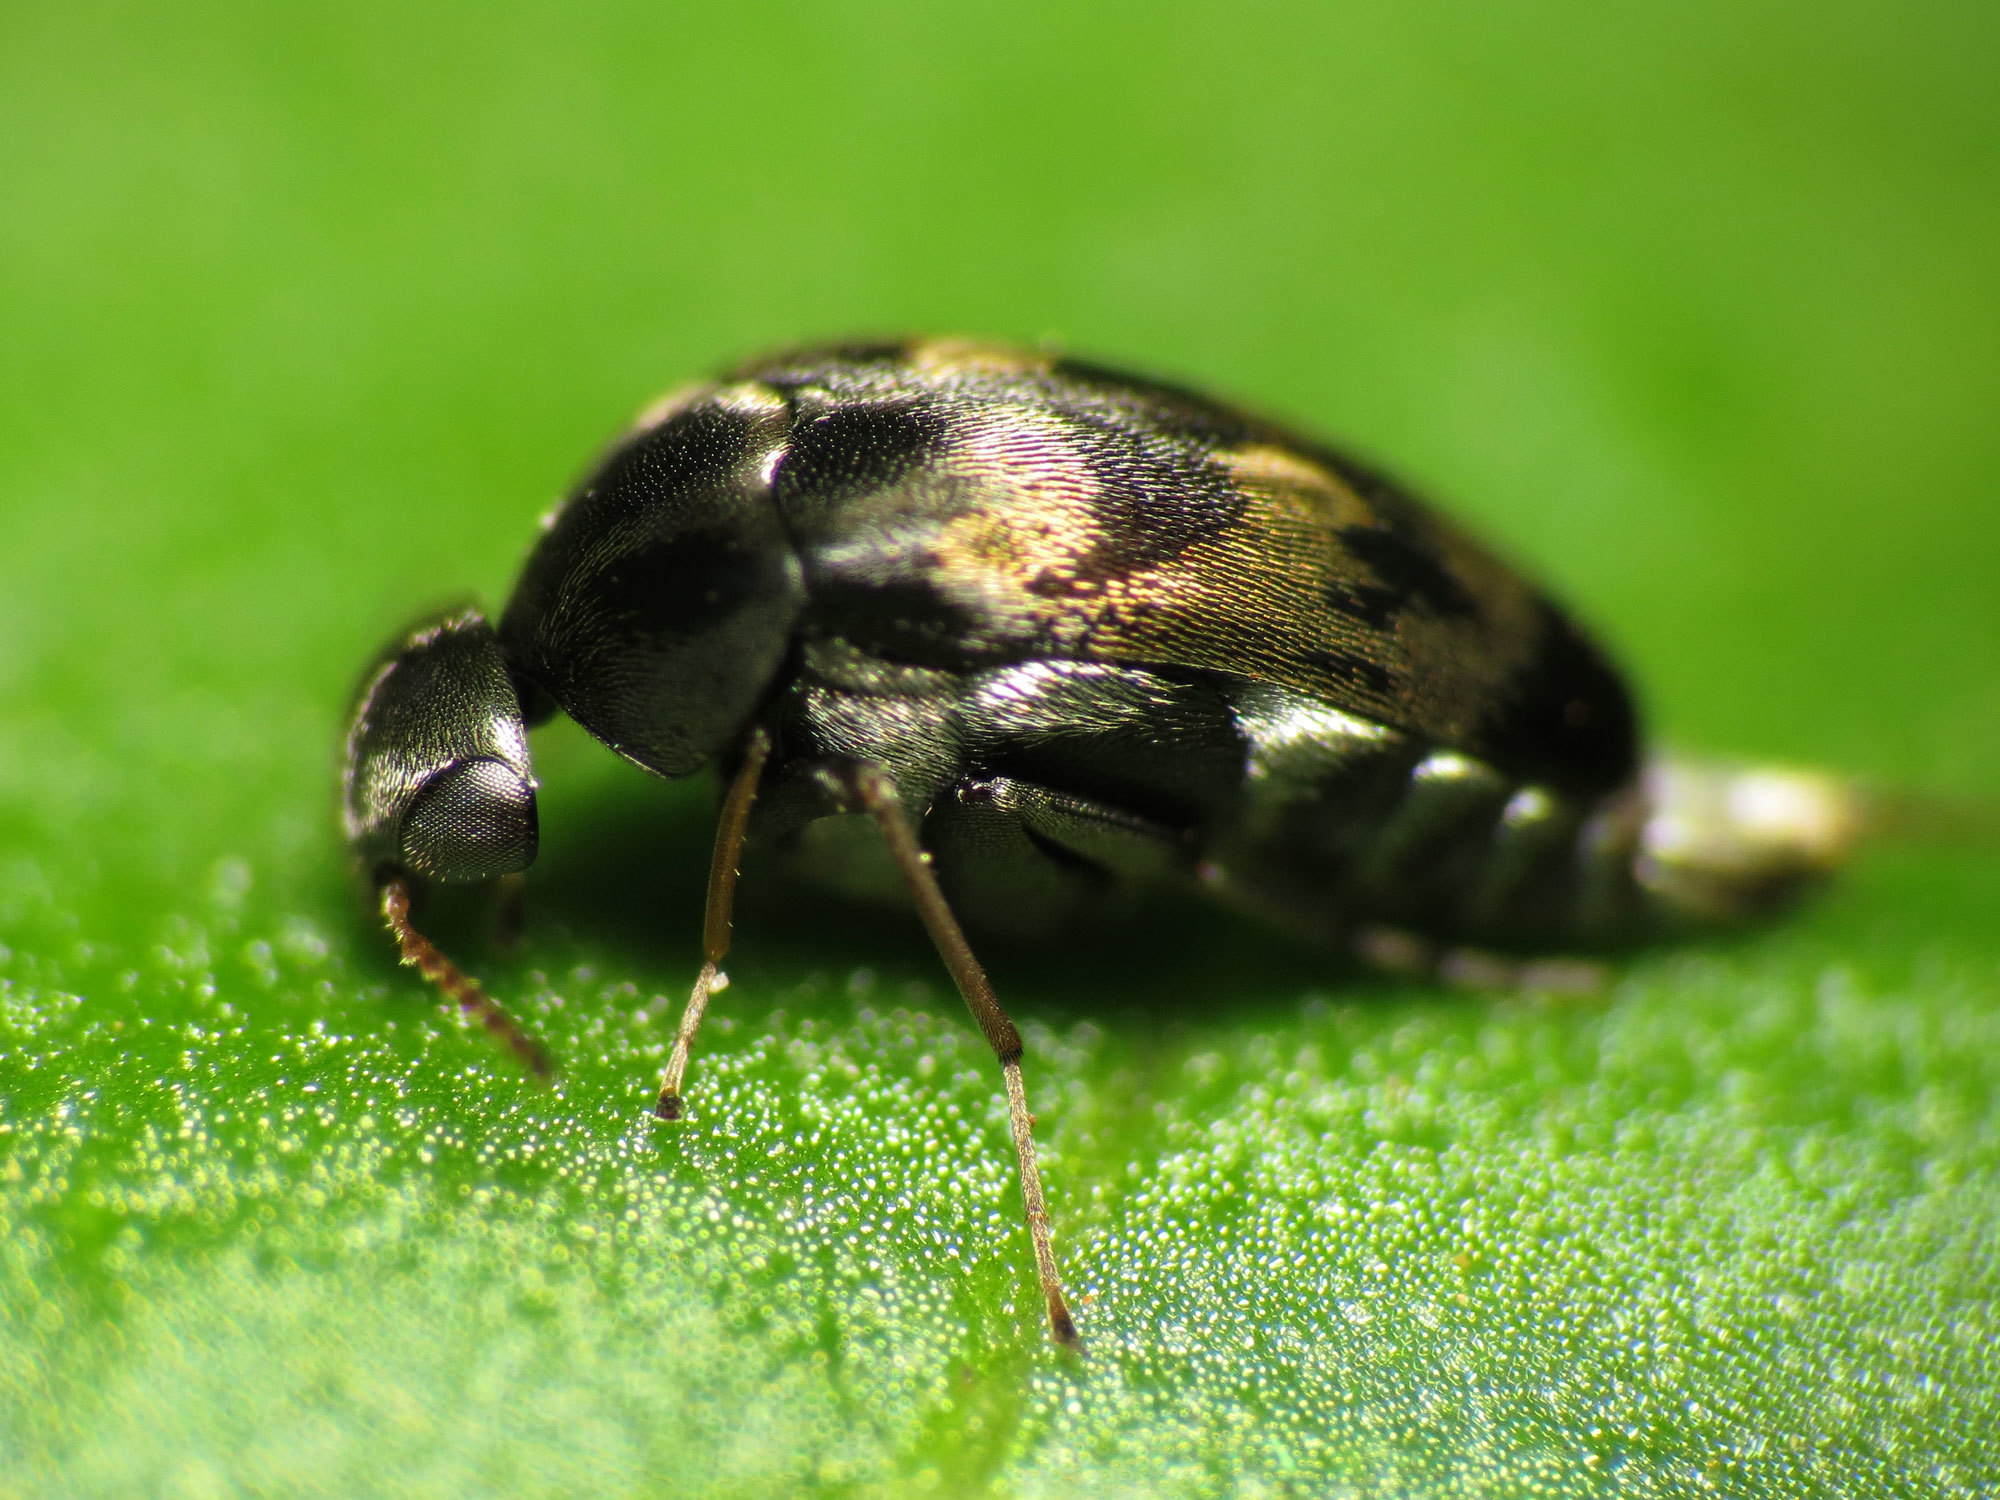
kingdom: Animalia
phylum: Arthropoda
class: Insecta
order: Coleoptera
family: Mordellidae
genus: Paramordellaria
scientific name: Paramordellaria triloba
